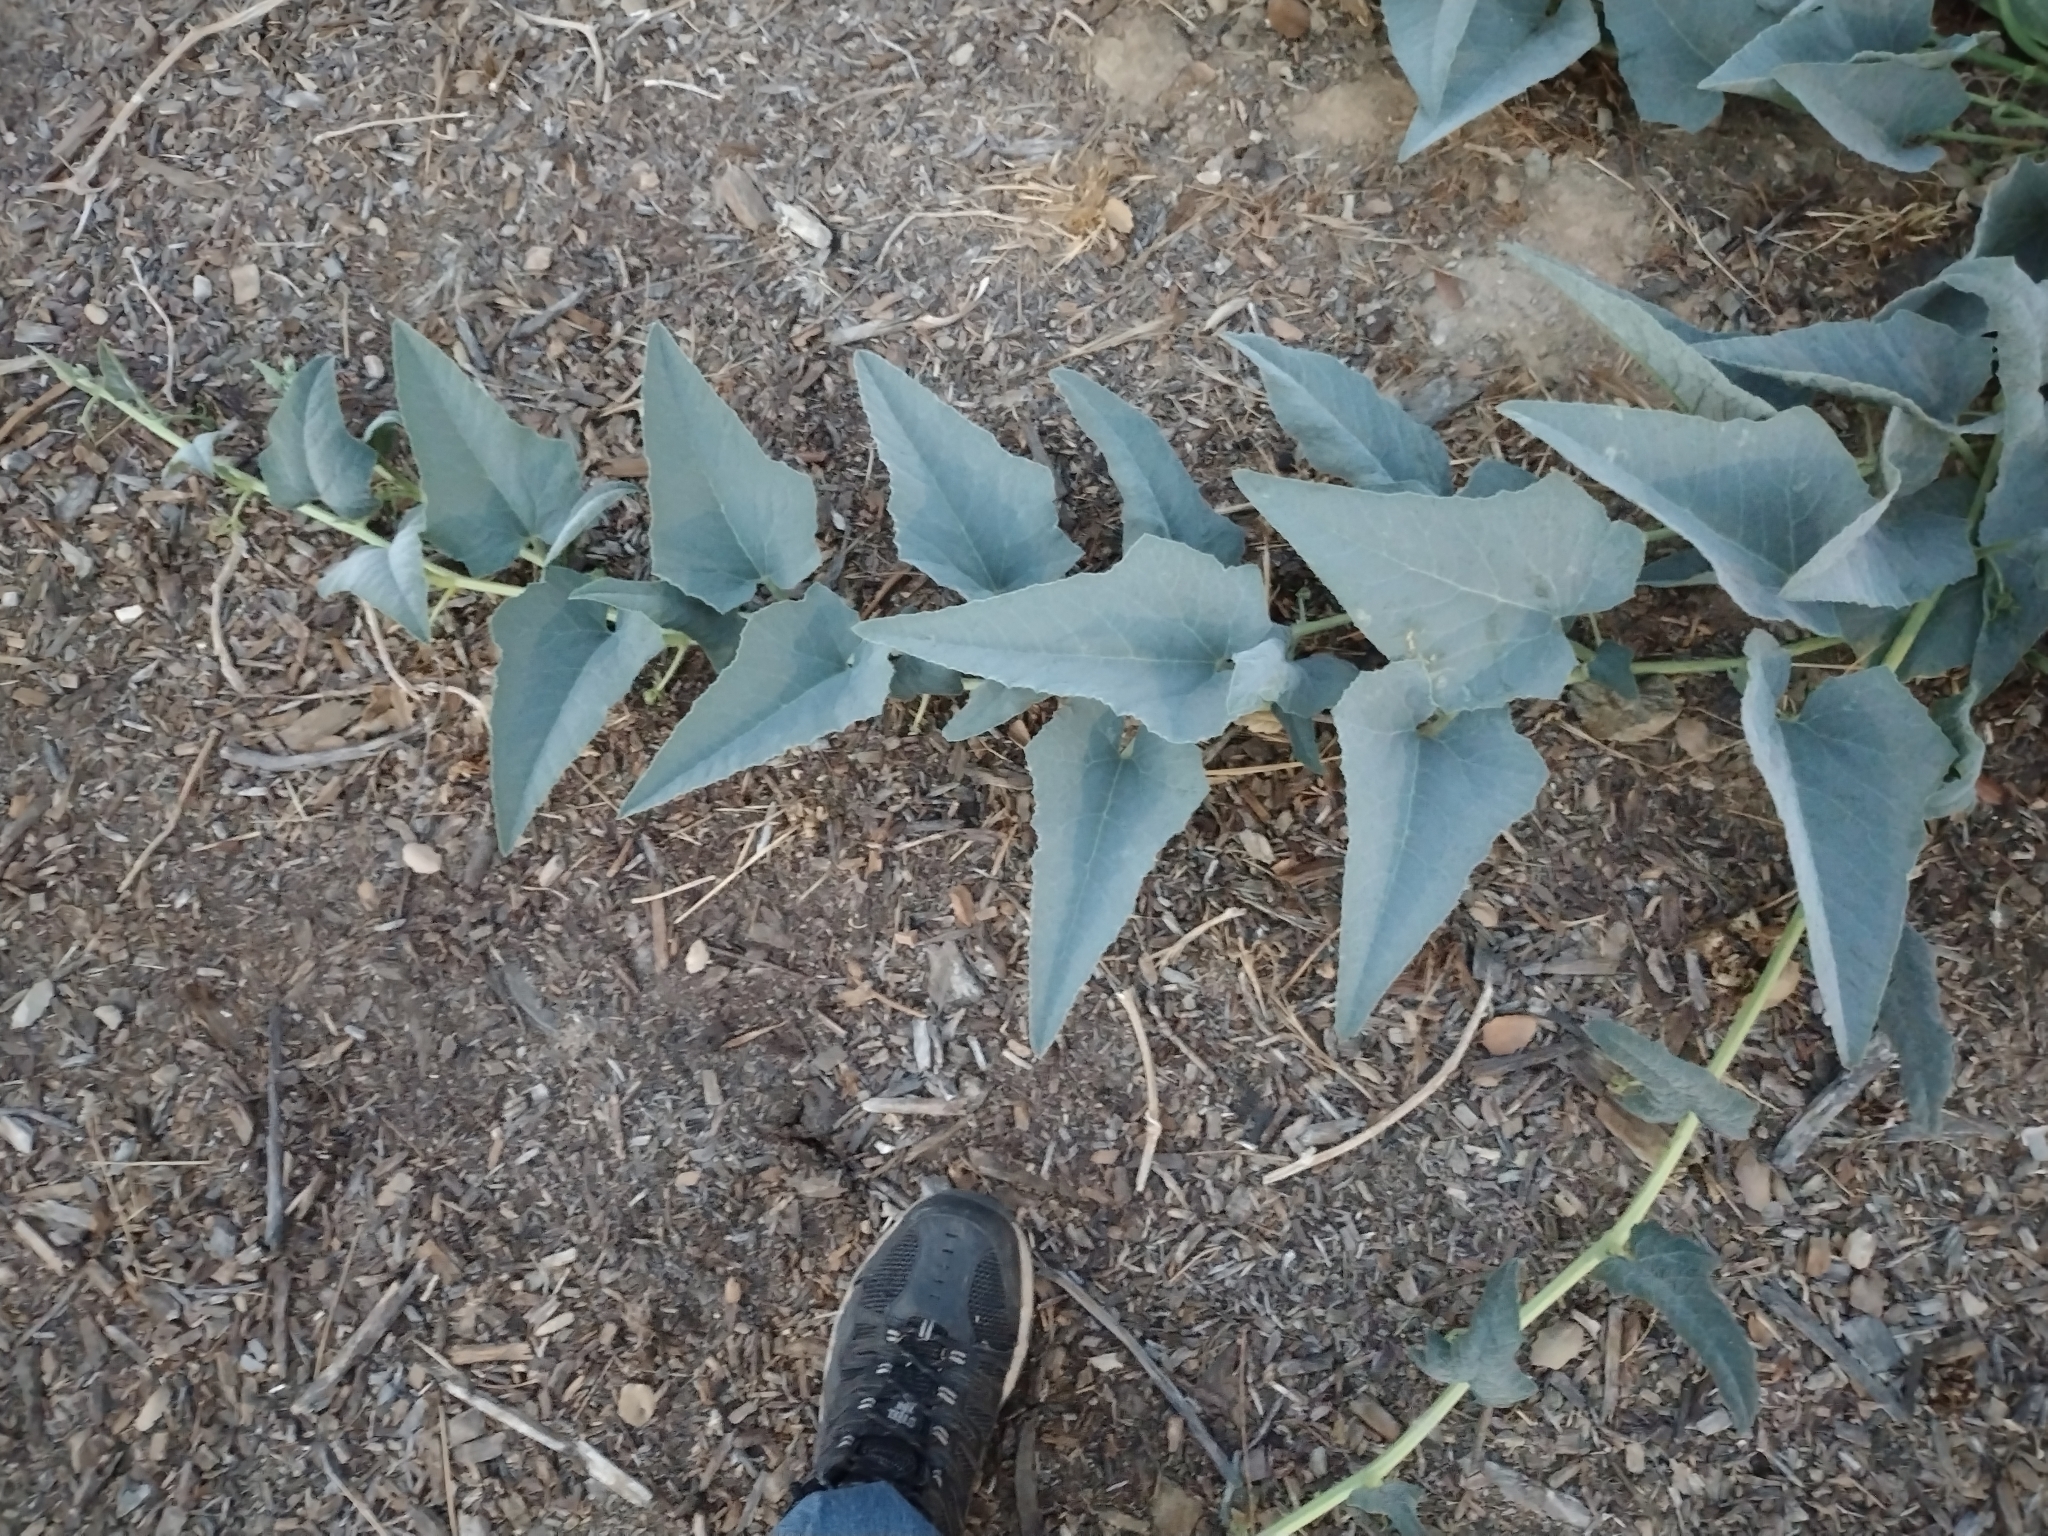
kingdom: Plantae
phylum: Tracheophyta
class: Magnoliopsida
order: Cucurbitales
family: Cucurbitaceae
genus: Cucurbita
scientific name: Cucurbita foetidissima
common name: Buffalo gourd
